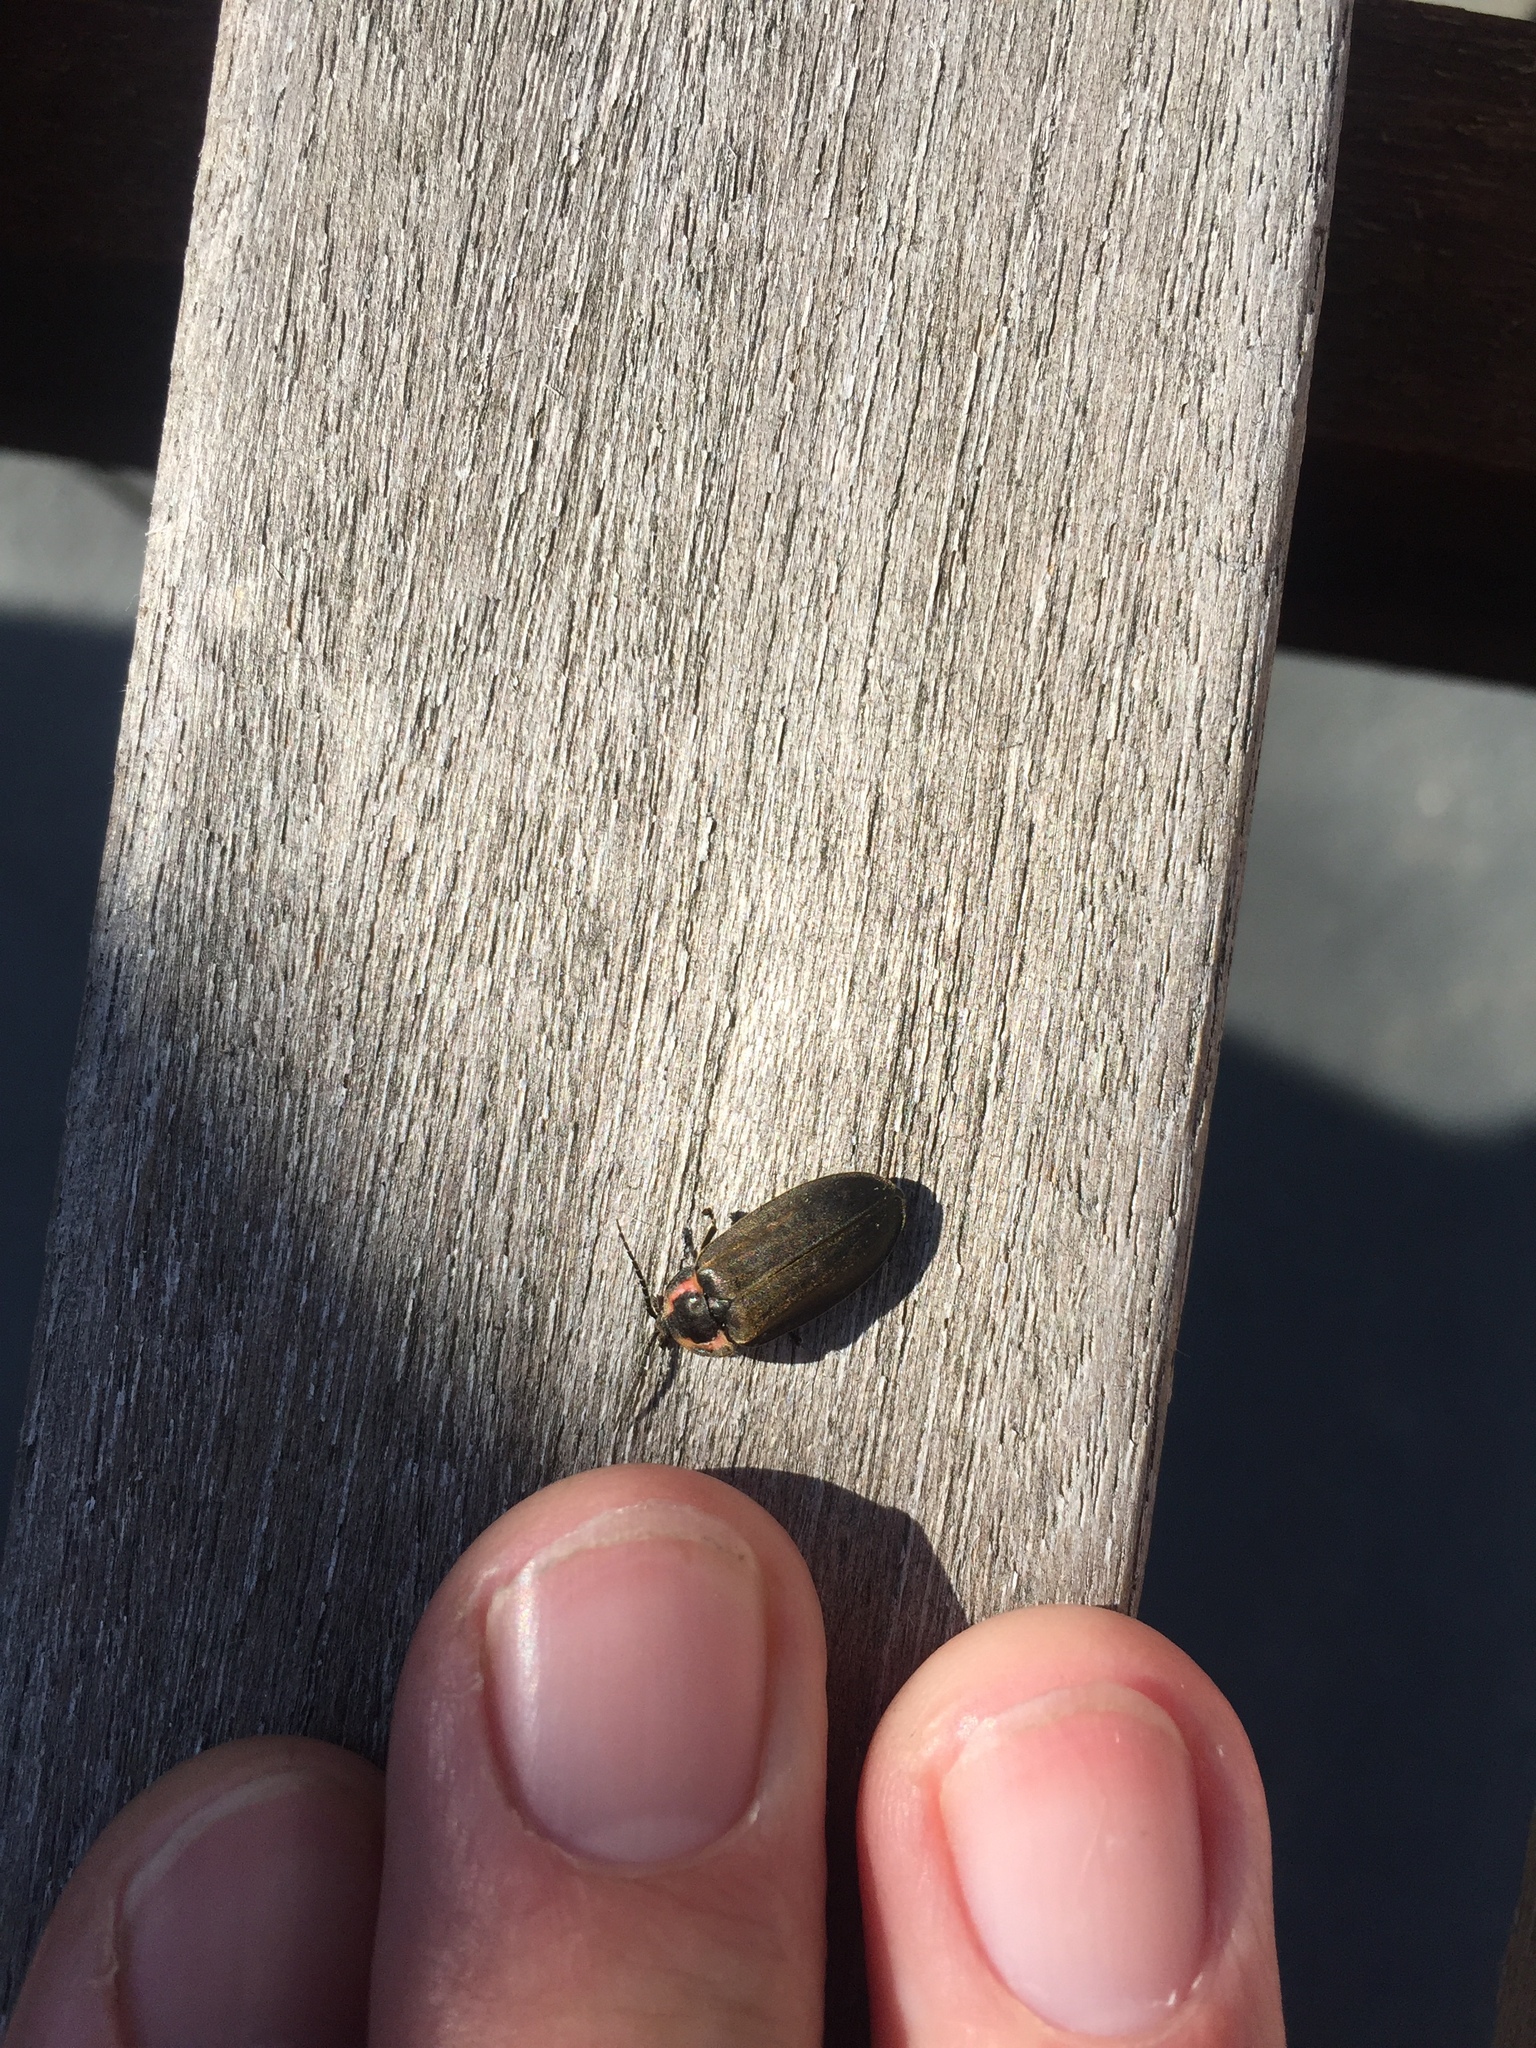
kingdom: Animalia
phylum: Arthropoda
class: Insecta
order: Coleoptera
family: Lampyridae
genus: Photinus
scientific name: Photinus corrusca
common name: Winter firefly
